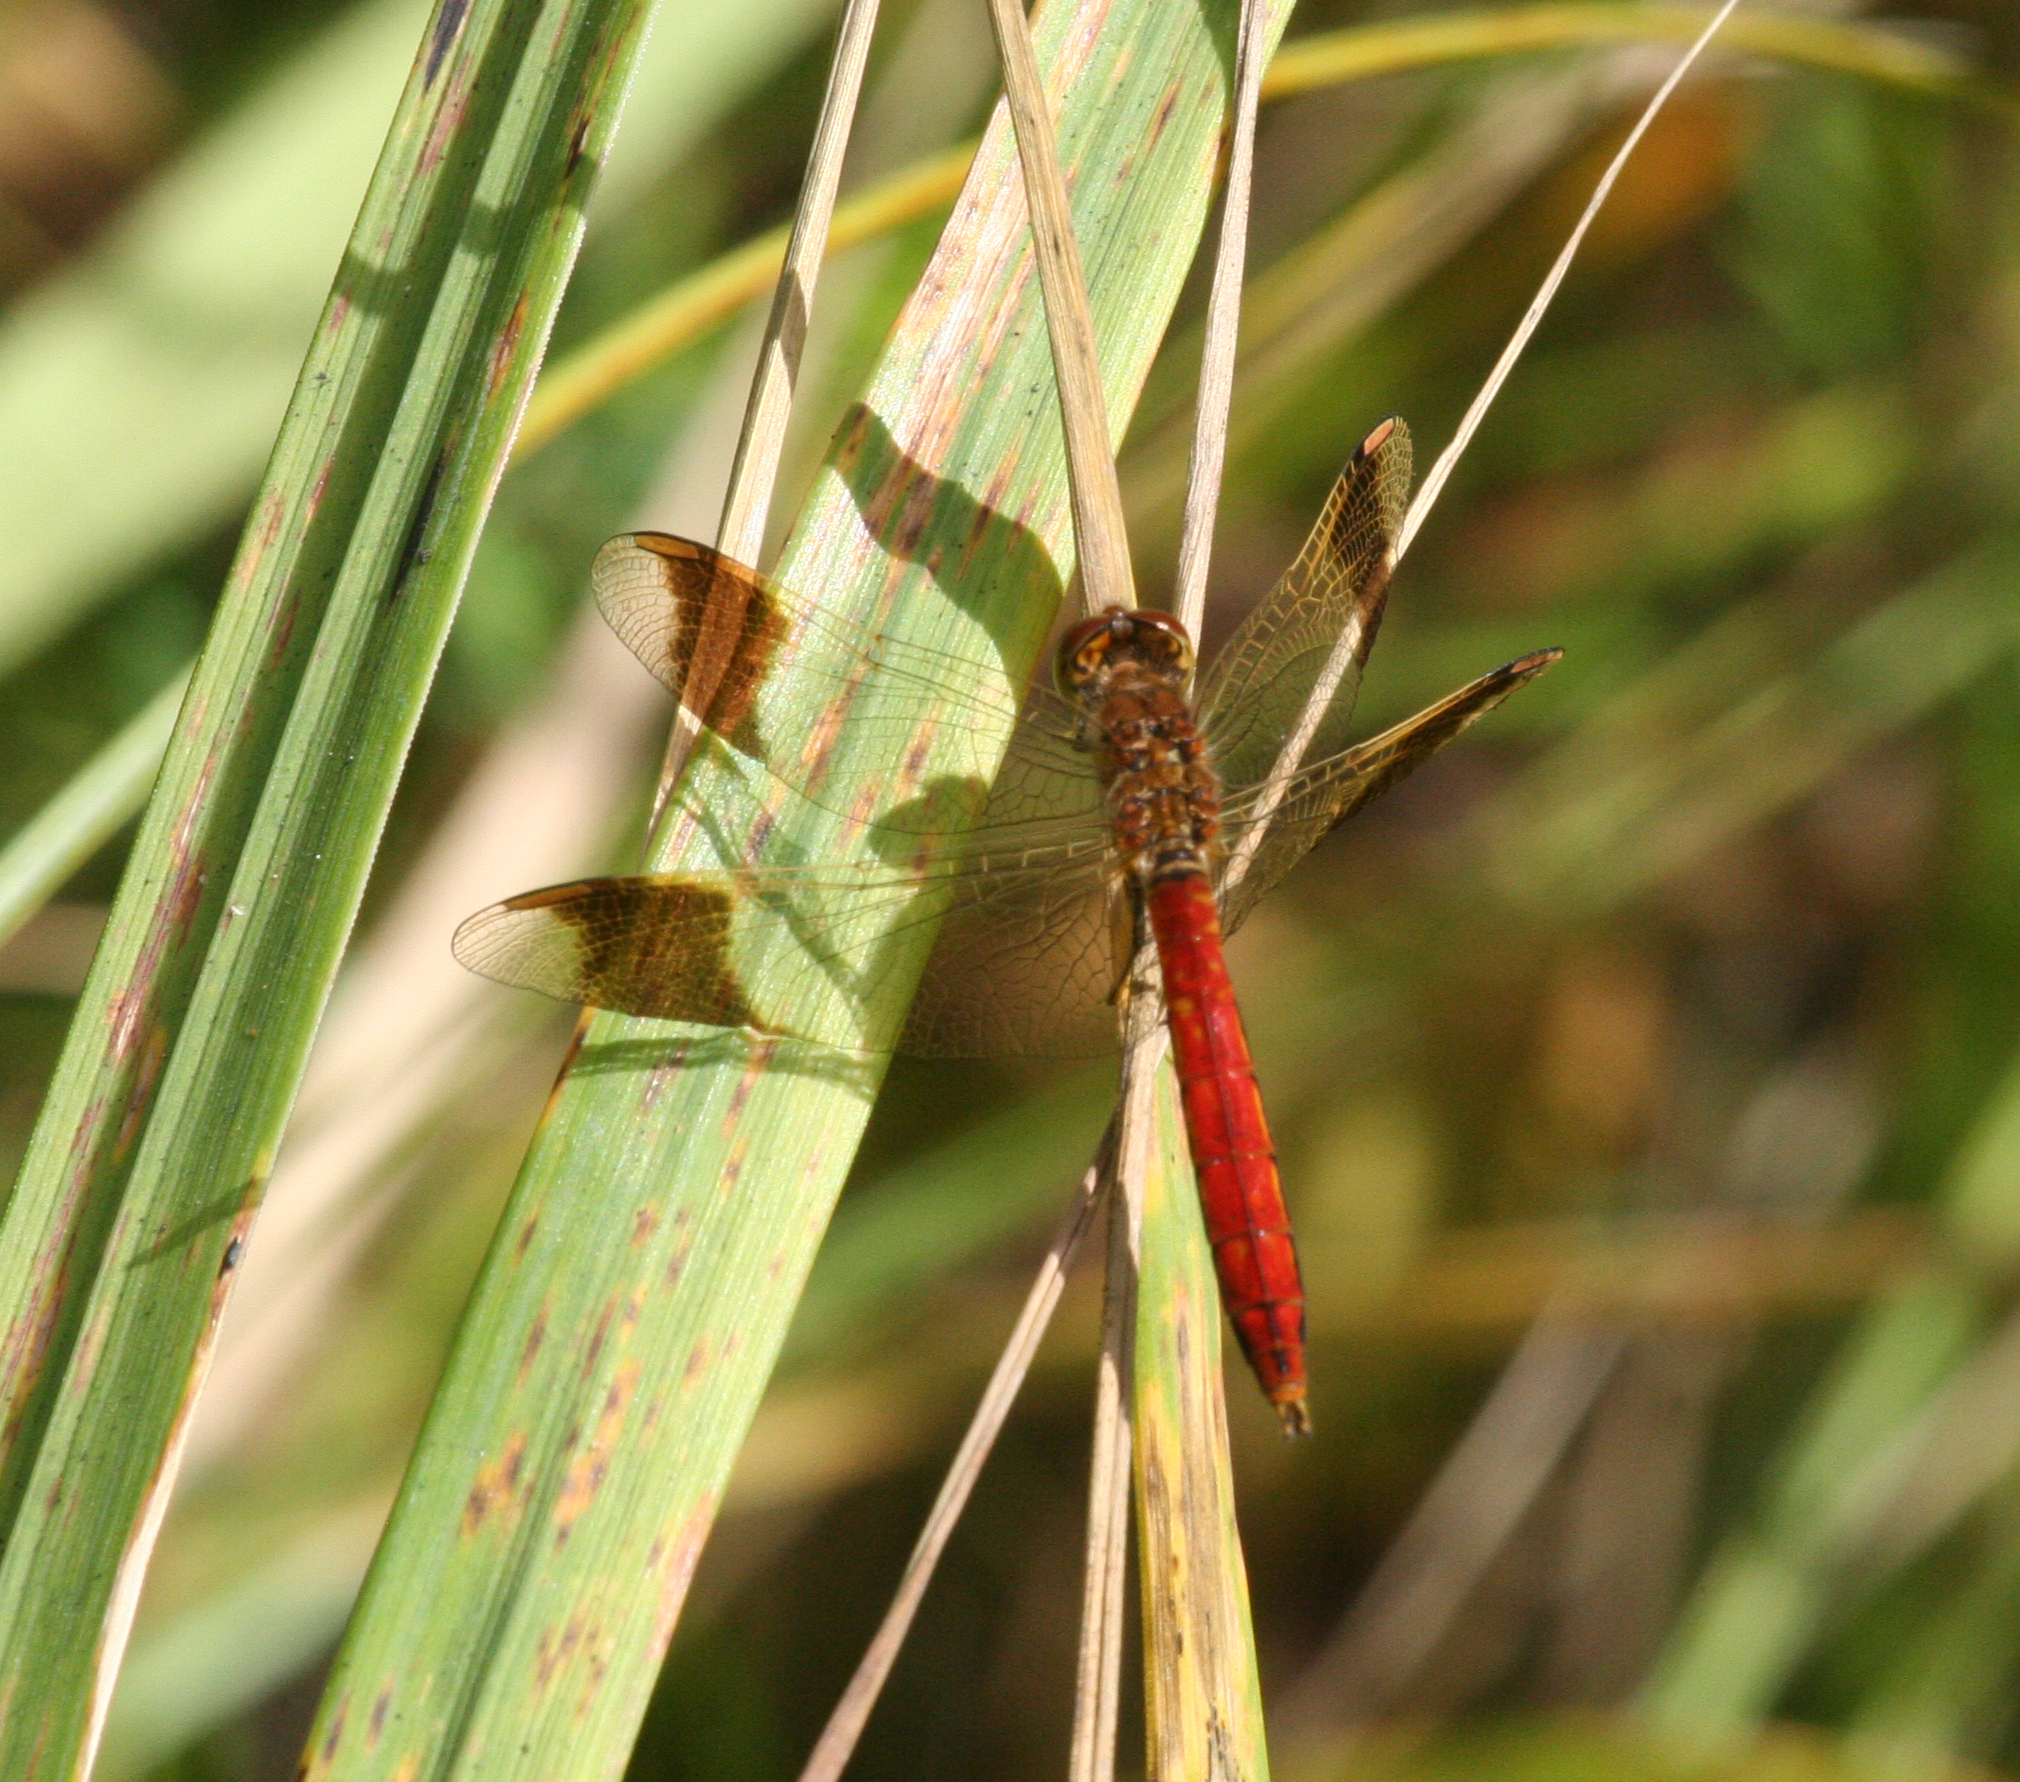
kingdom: Animalia
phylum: Arthropoda
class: Insecta
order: Odonata
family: Libellulidae
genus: Sympetrum
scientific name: Sympetrum pedemontanum
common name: Banded darter
